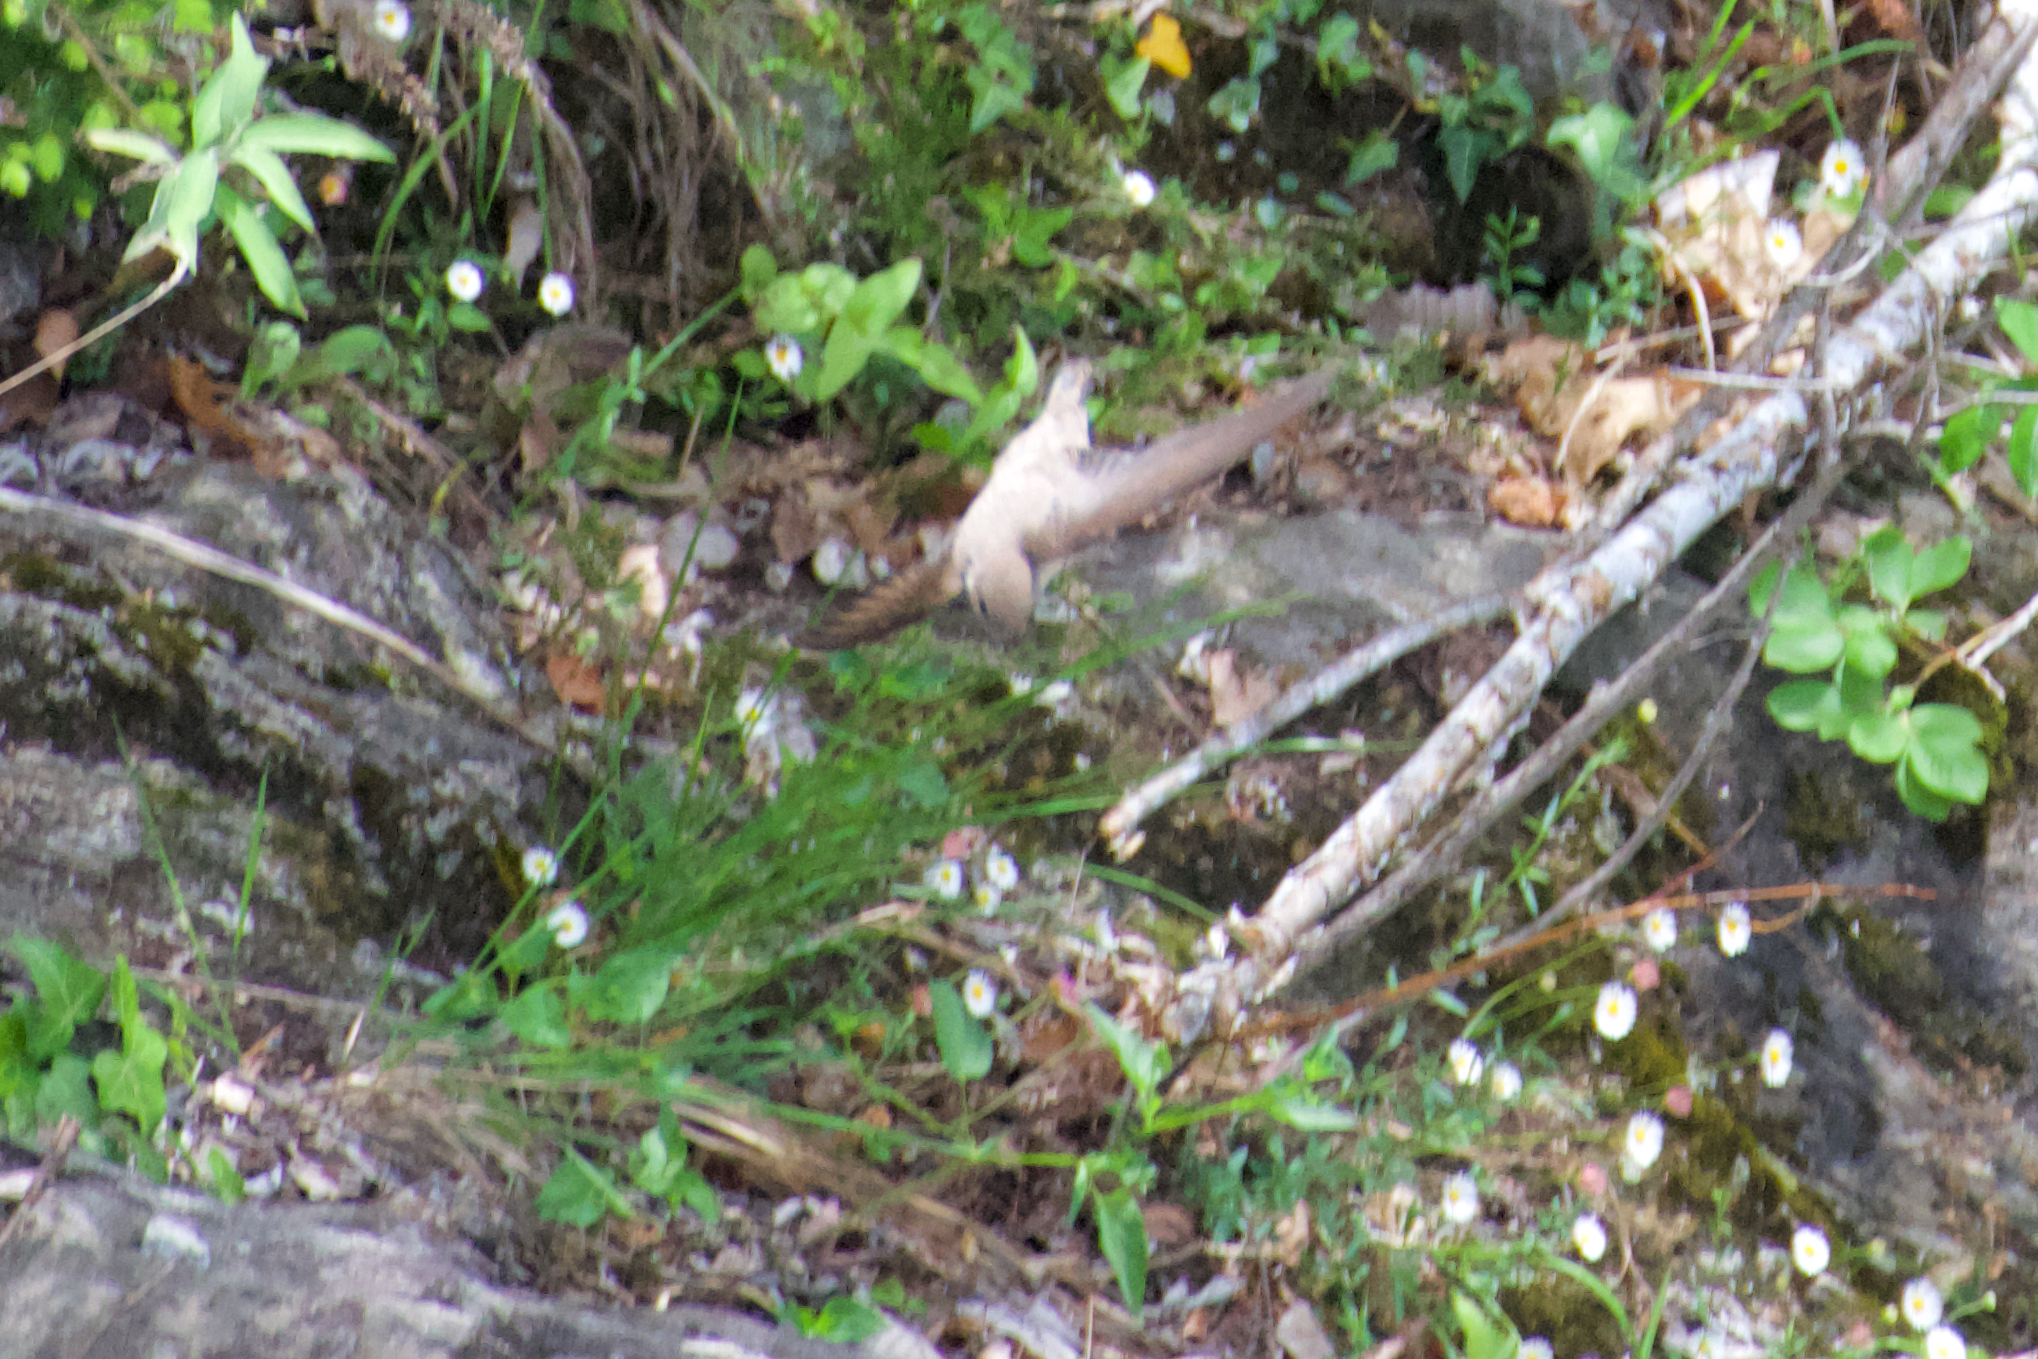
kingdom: Animalia
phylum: Chordata
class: Aves
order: Passeriformes
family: Hirundinidae
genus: Ptyonoprogne
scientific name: Ptyonoprogne rupestris
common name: Eurasian crag martin
